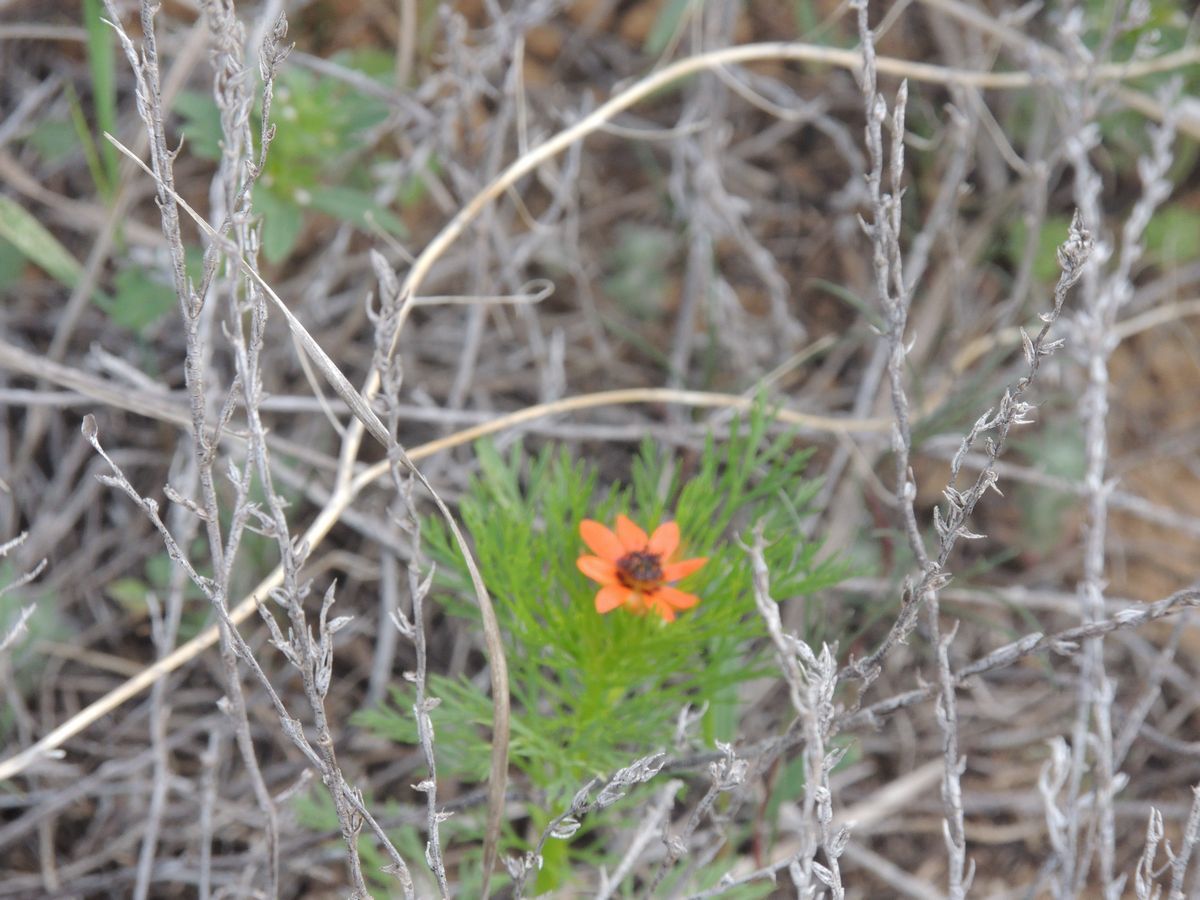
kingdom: Plantae
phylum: Tracheophyta
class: Magnoliopsida
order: Ranunculales
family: Ranunculaceae
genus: Adonis
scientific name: Adonis aestivalis
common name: Summer pheasant's-eye
